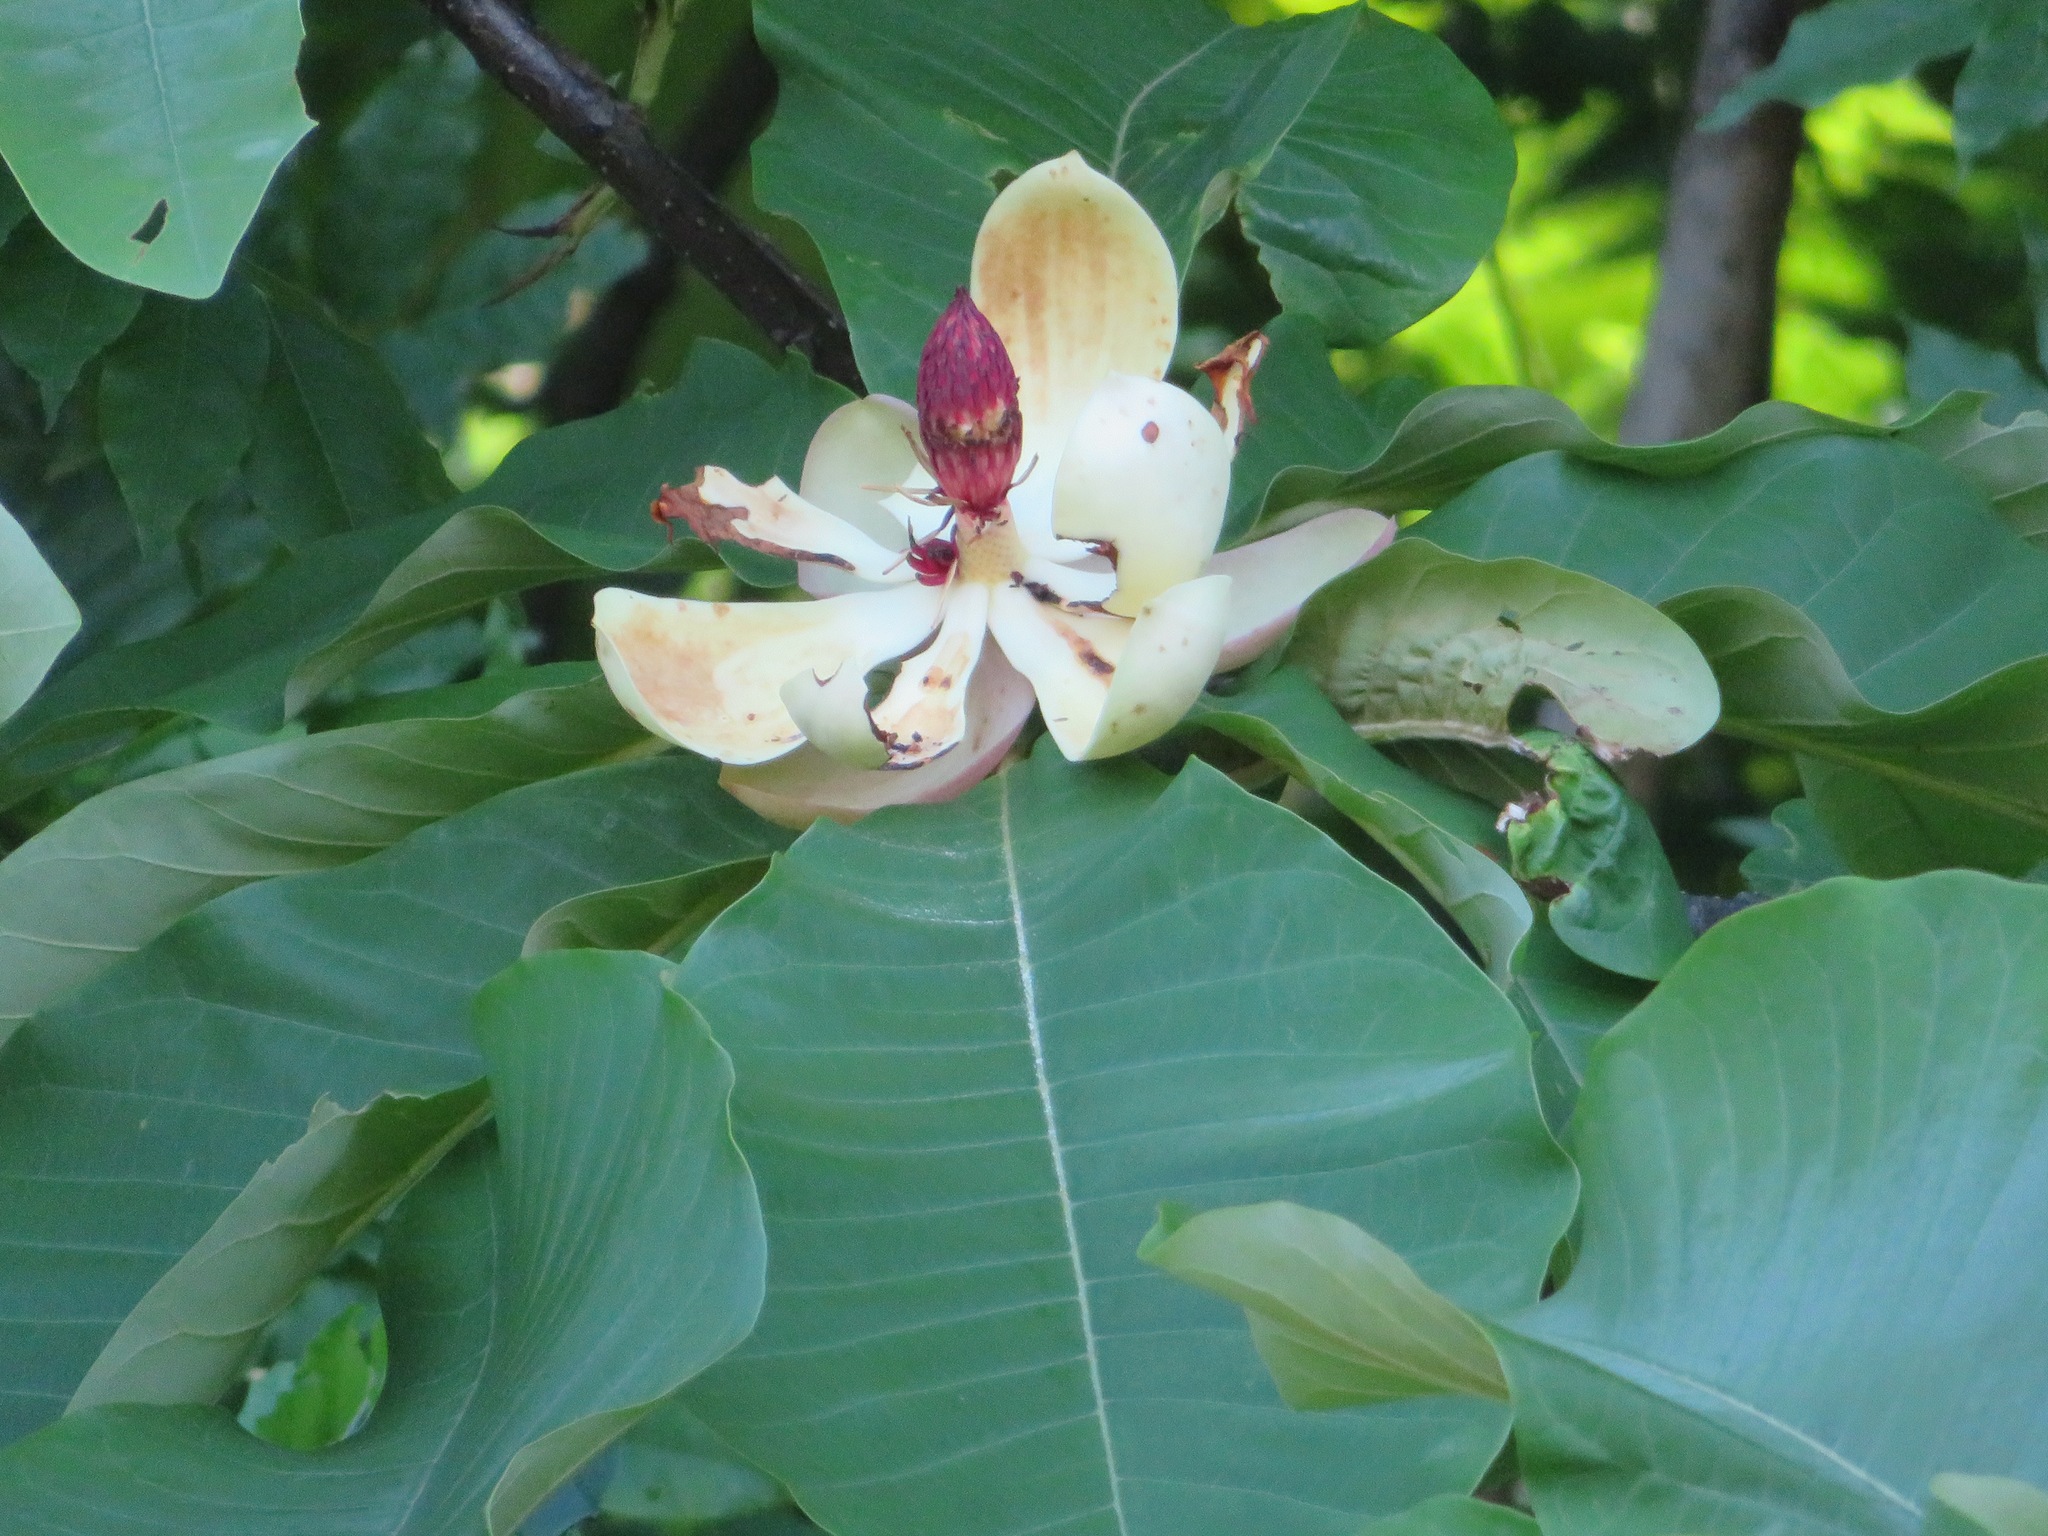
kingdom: Plantae
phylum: Tracheophyta
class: Magnoliopsida
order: Magnoliales
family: Magnoliaceae
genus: Magnolia
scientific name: Magnolia obovata
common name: Japanese whitebark magnolia
